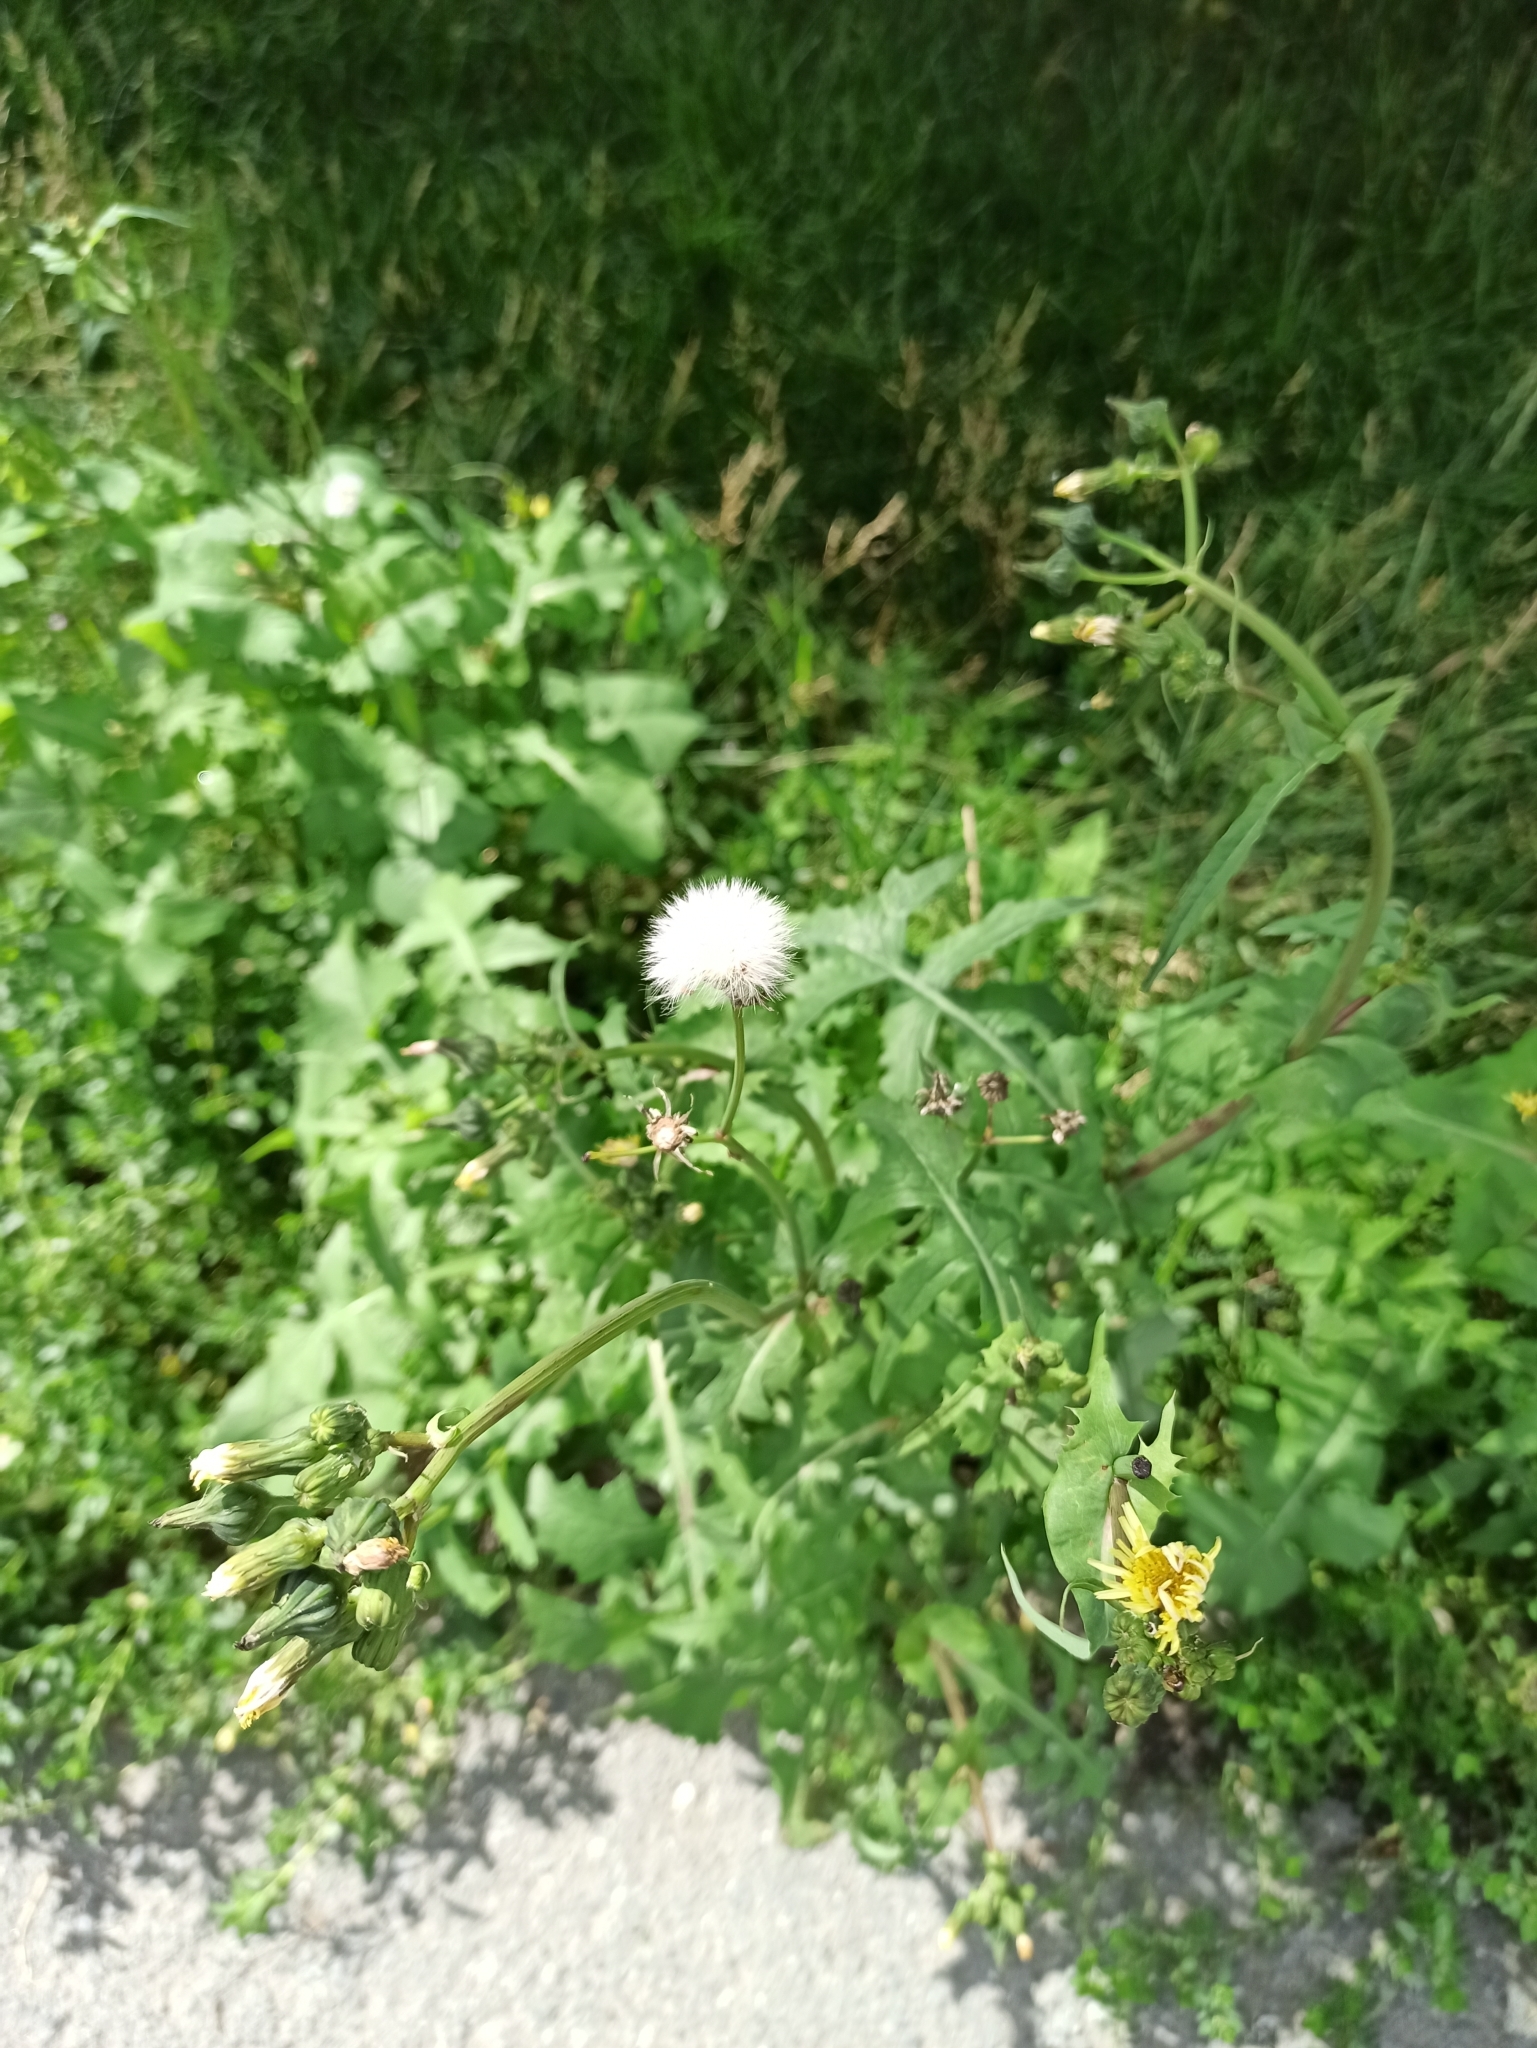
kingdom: Plantae
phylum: Tracheophyta
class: Magnoliopsida
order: Asterales
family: Asteraceae
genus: Sonchus
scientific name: Sonchus oleraceus
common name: Common sowthistle
